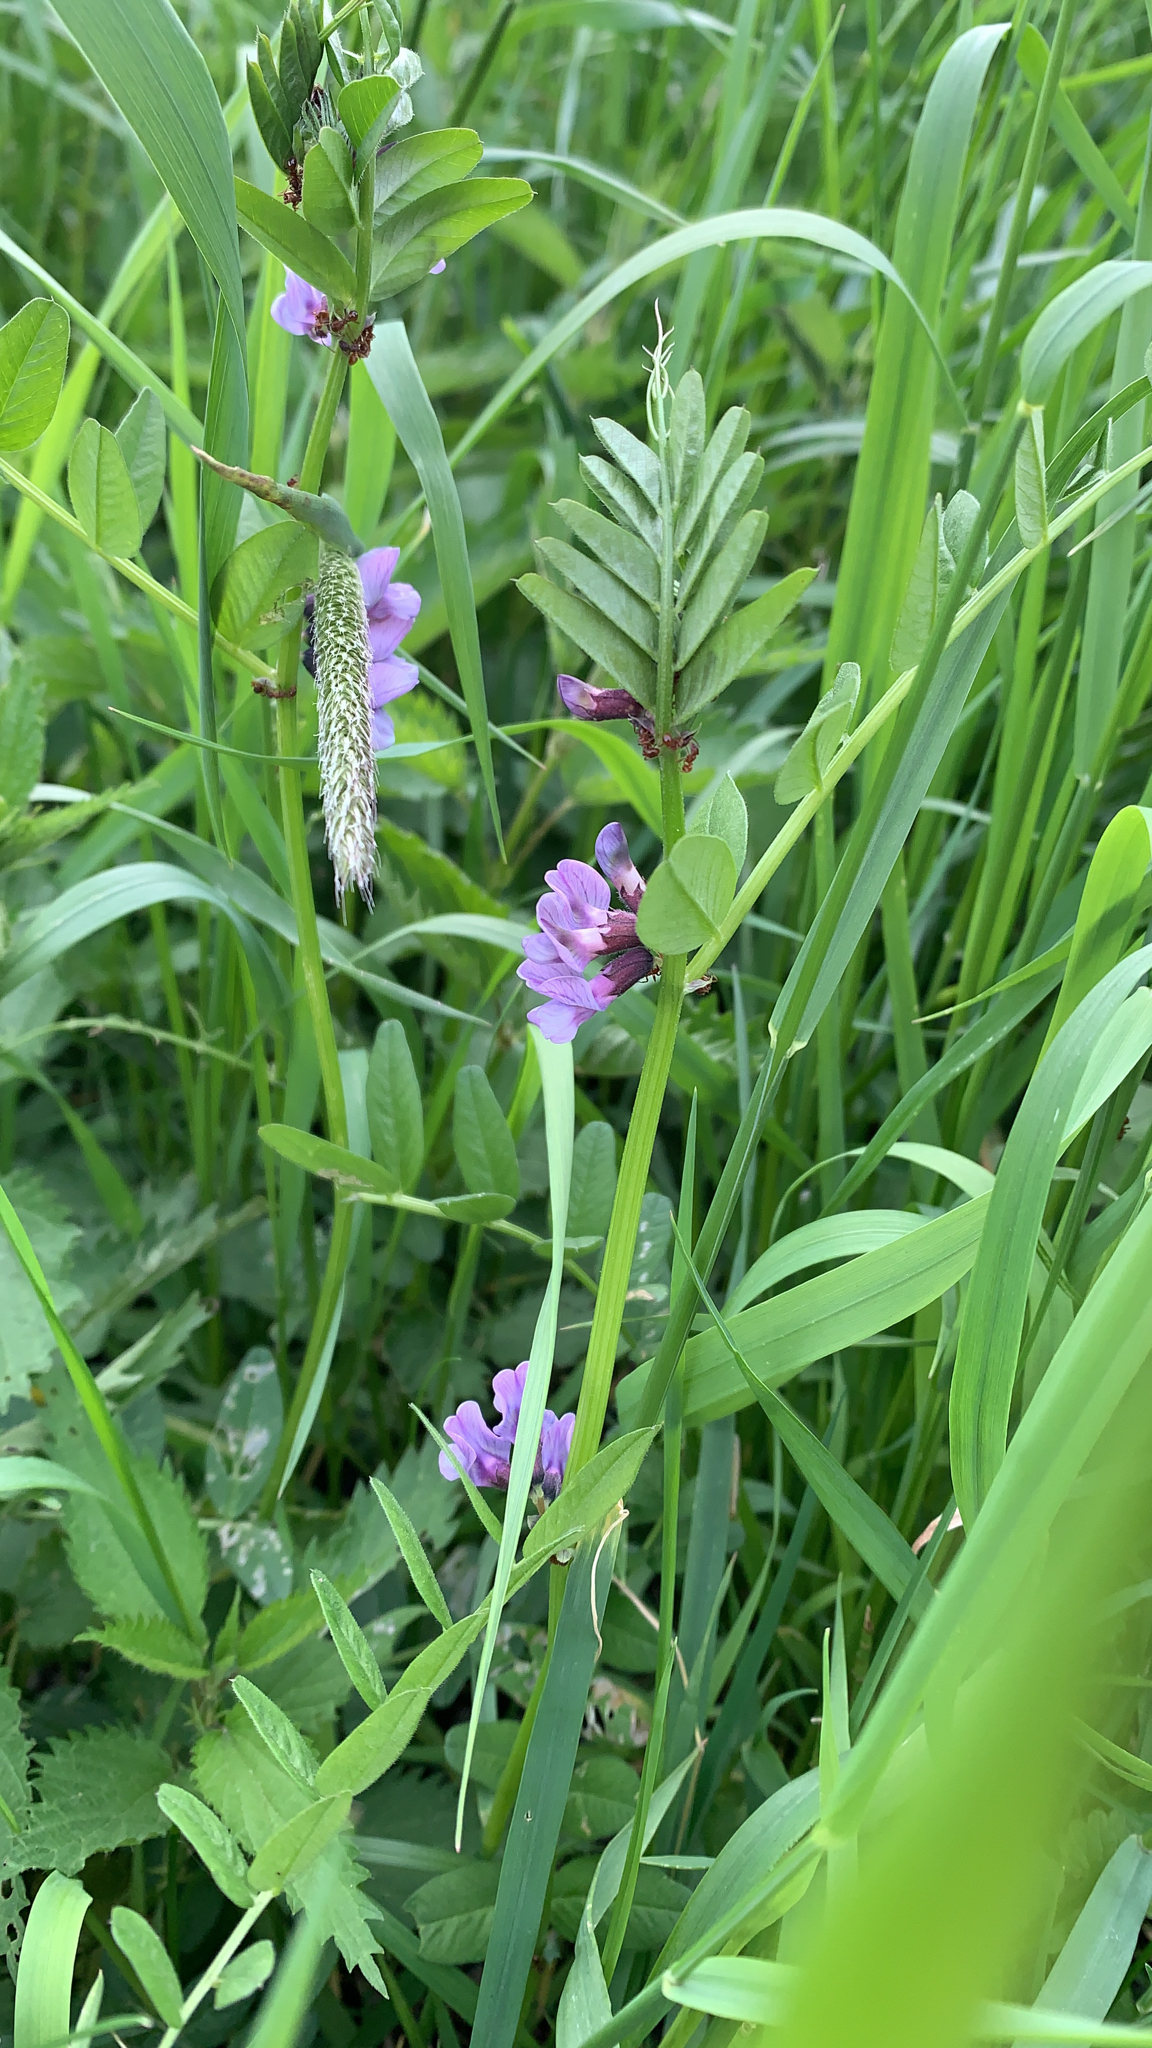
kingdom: Plantae
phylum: Tracheophyta
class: Magnoliopsida
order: Fabales
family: Fabaceae
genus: Vicia
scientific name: Vicia sepium
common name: Bush vetch
